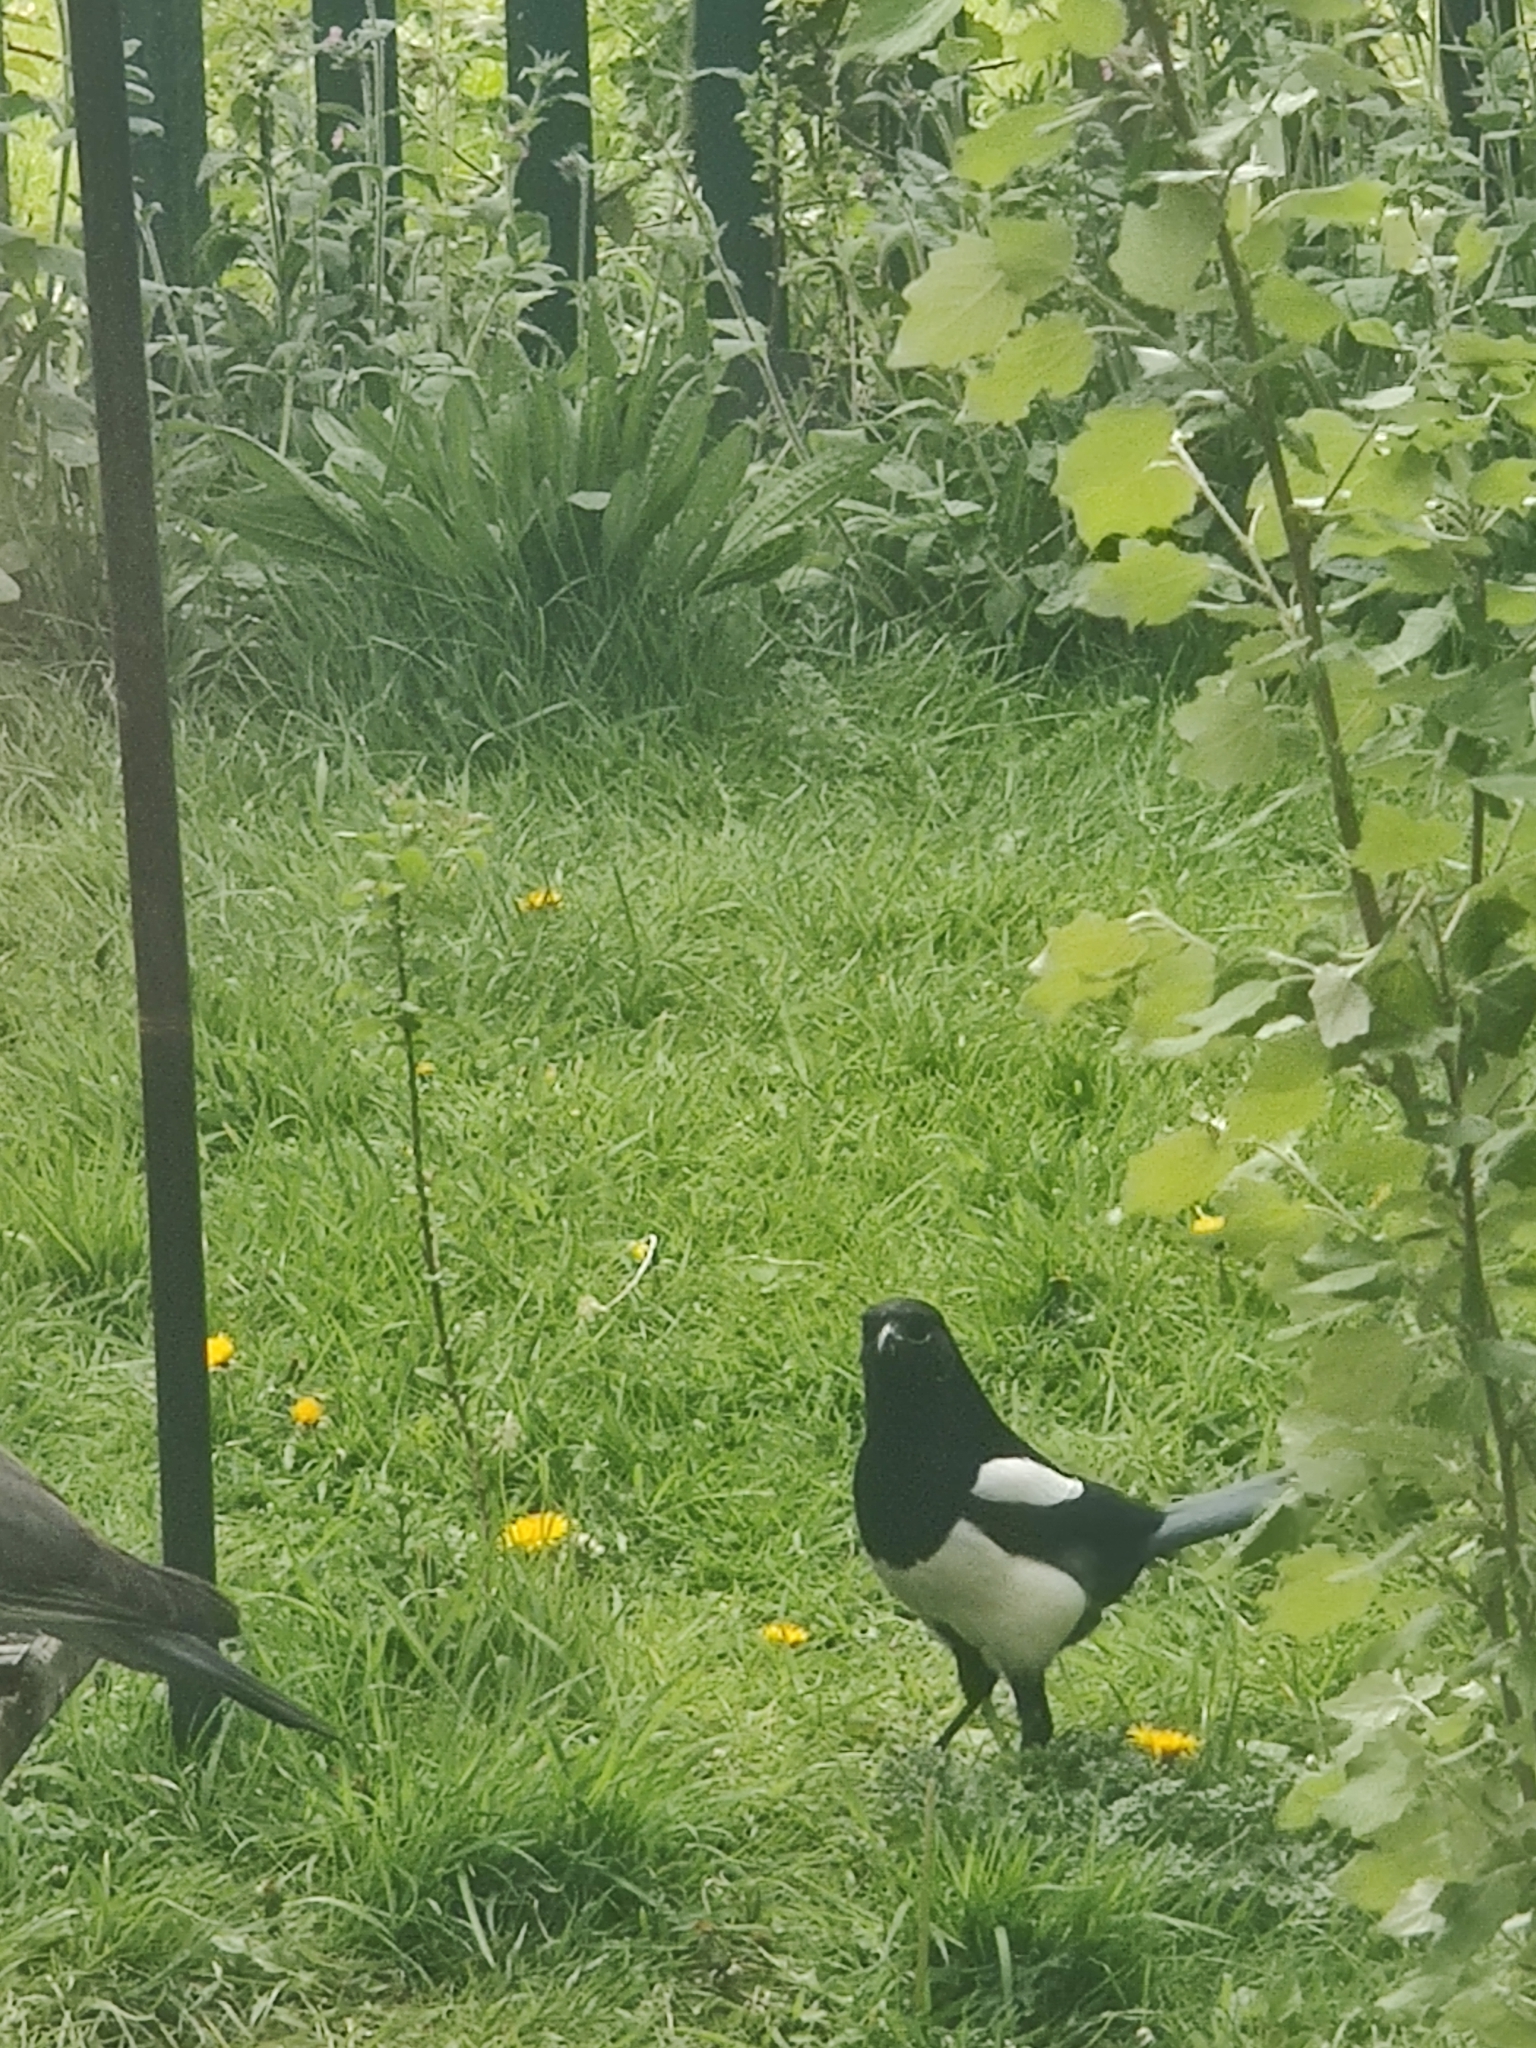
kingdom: Animalia
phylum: Chordata
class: Aves
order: Passeriformes
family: Corvidae
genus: Pica
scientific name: Pica pica
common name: Eurasian magpie
